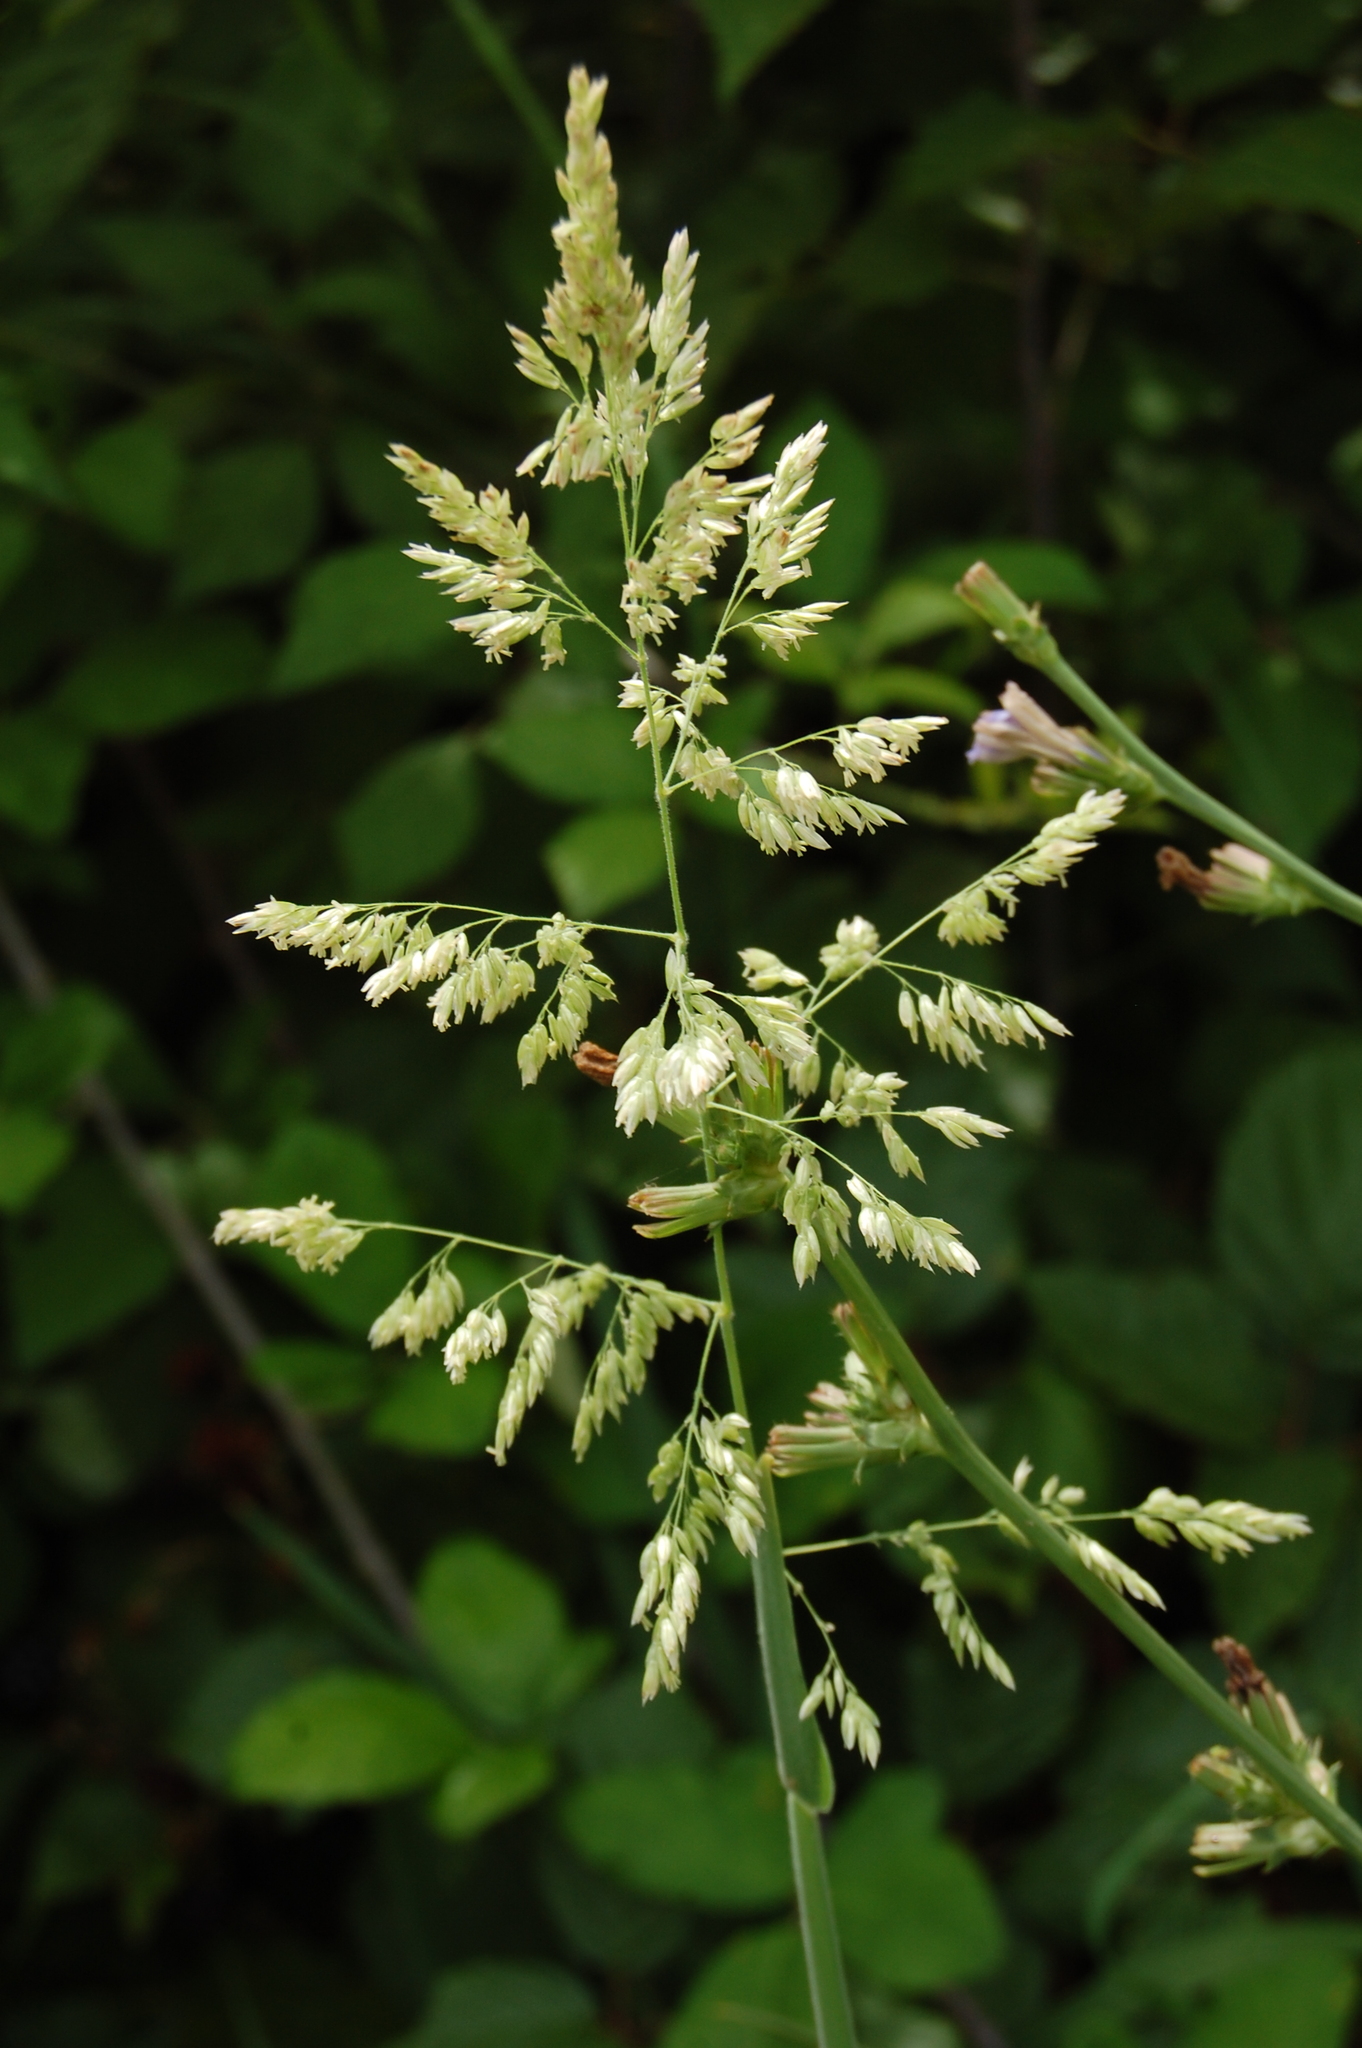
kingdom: Plantae
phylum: Tracheophyta
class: Liliopsida
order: Poales
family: Poaceae
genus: Holcus
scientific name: Holcus lanatus
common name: Yorkshire-fog
